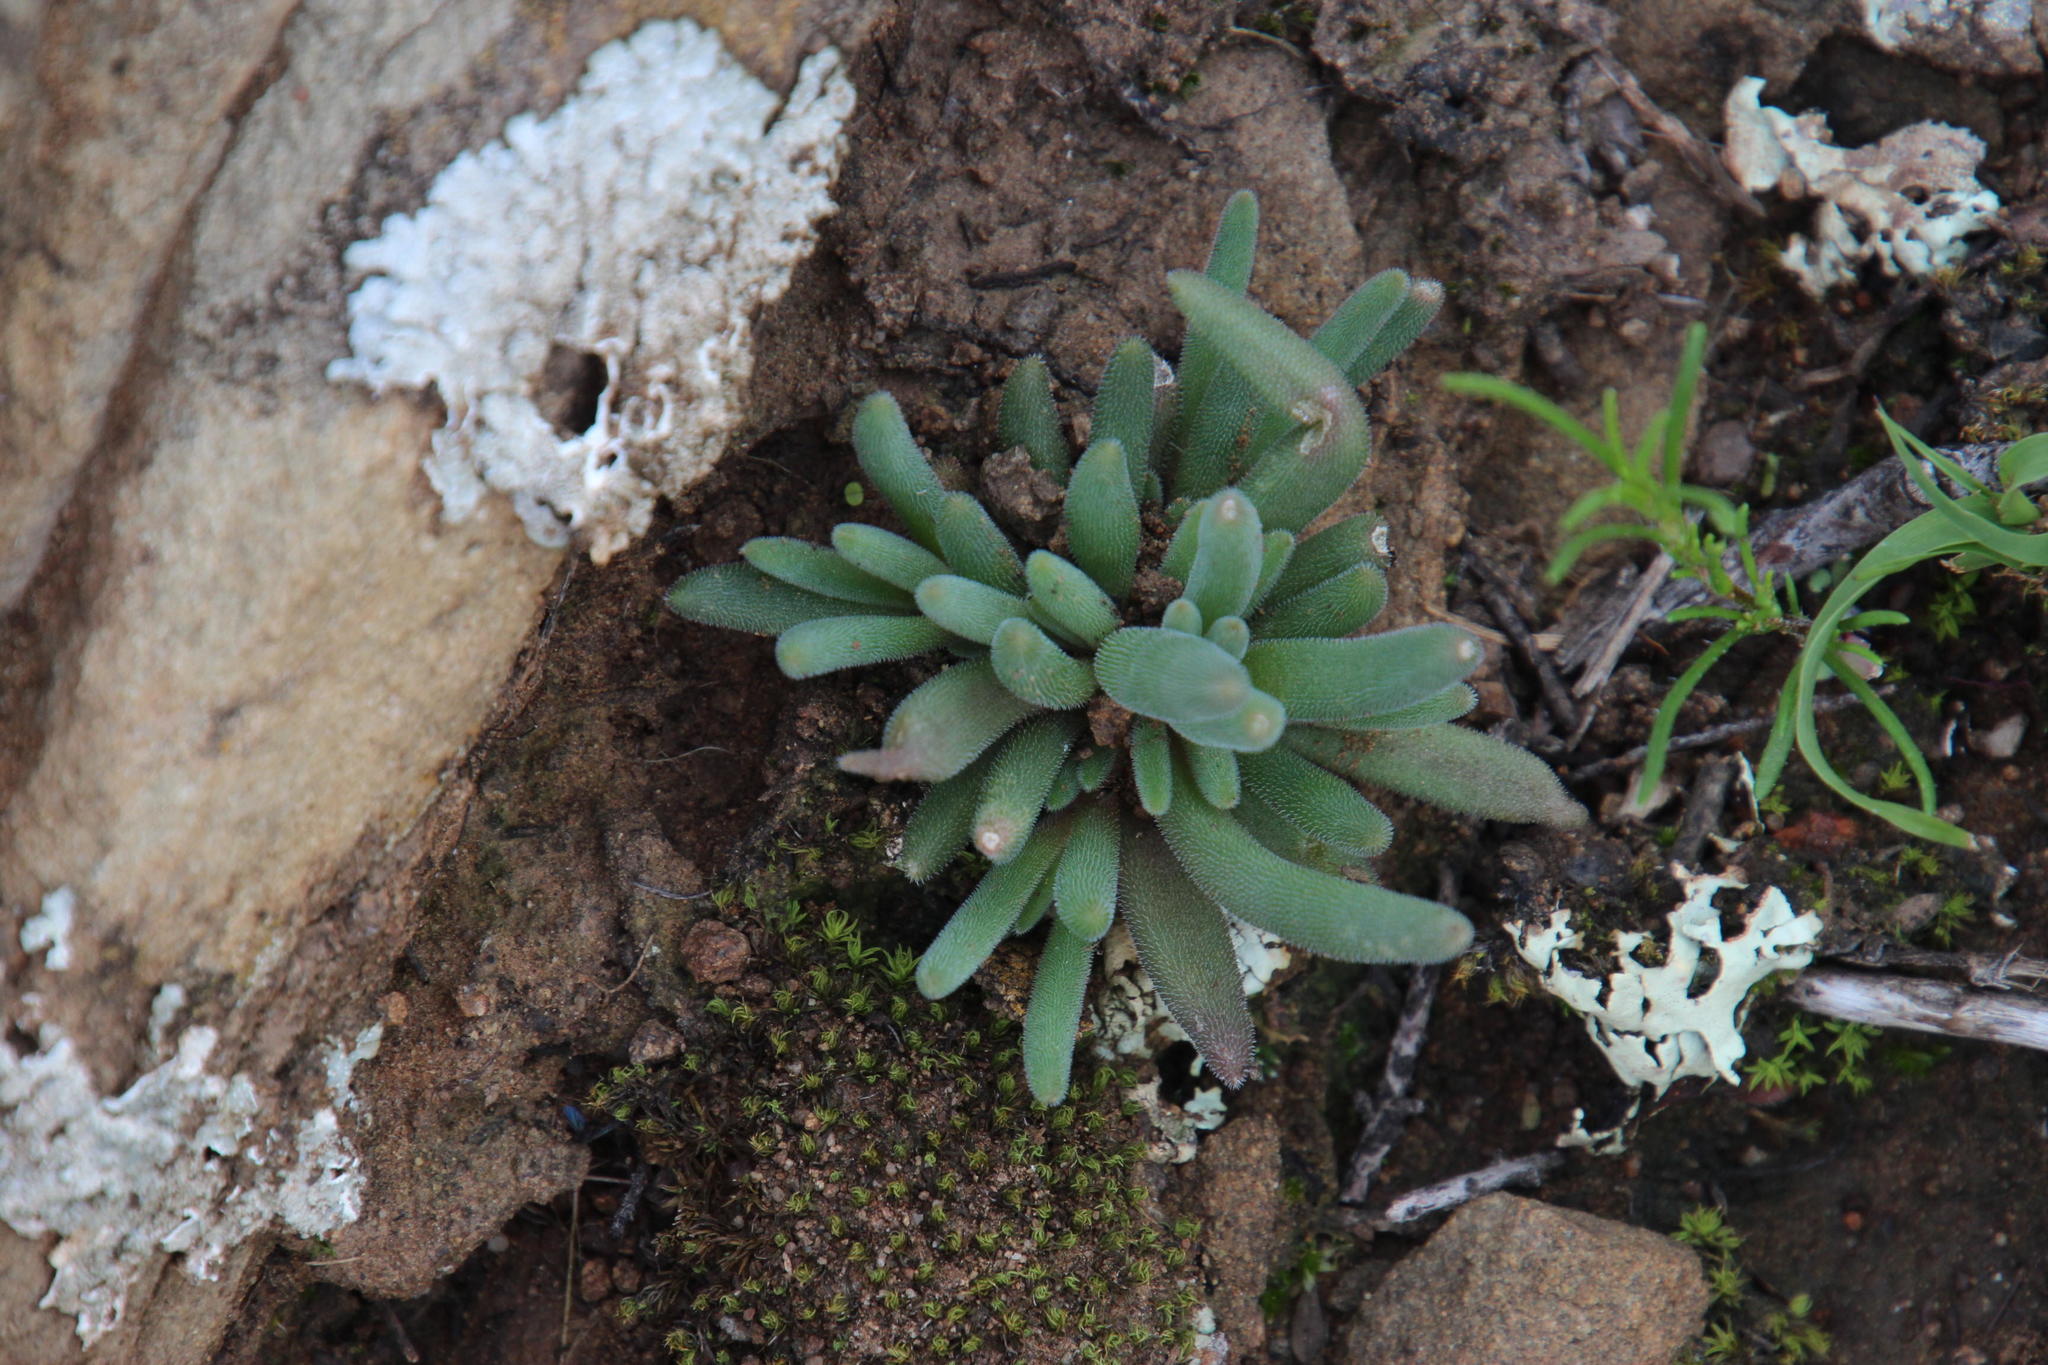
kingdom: Plantae
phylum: Tracheophyta
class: Magnoliopsida
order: Caryophyllales
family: Aizoaceae
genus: Delosperma
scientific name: Delosperma lootsbergense
